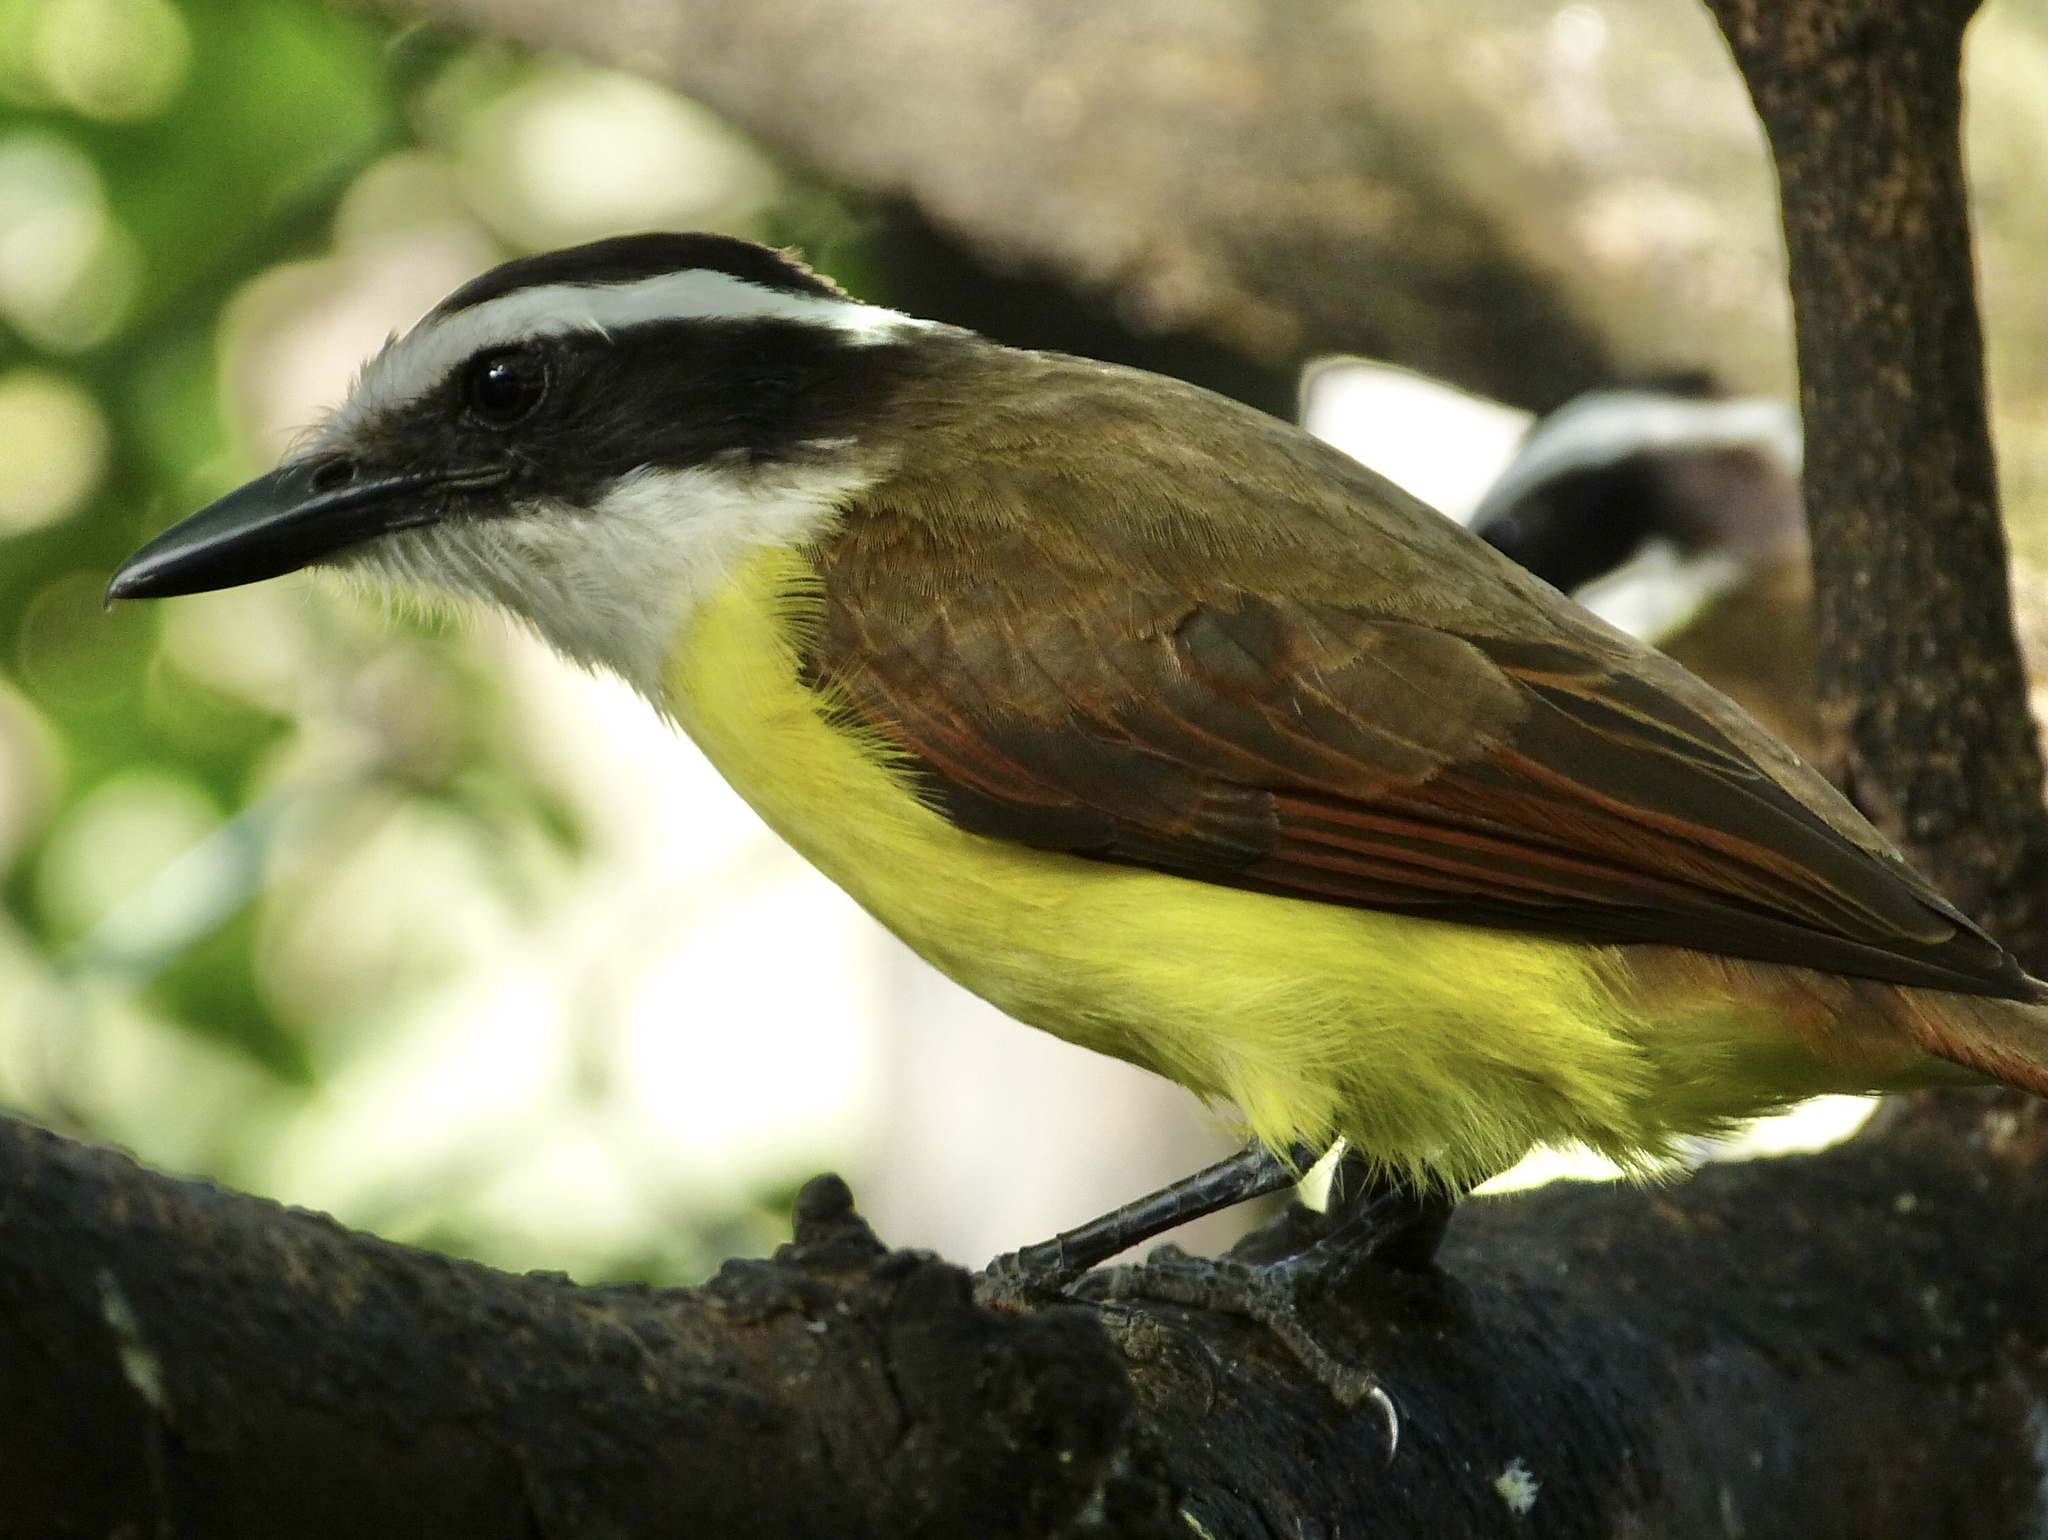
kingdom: Animalia
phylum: Chordata
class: Aves
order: Passeriformes
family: Tyrannidae
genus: Pitangus
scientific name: Pitangus sulphuratus
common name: Great kiskadee
